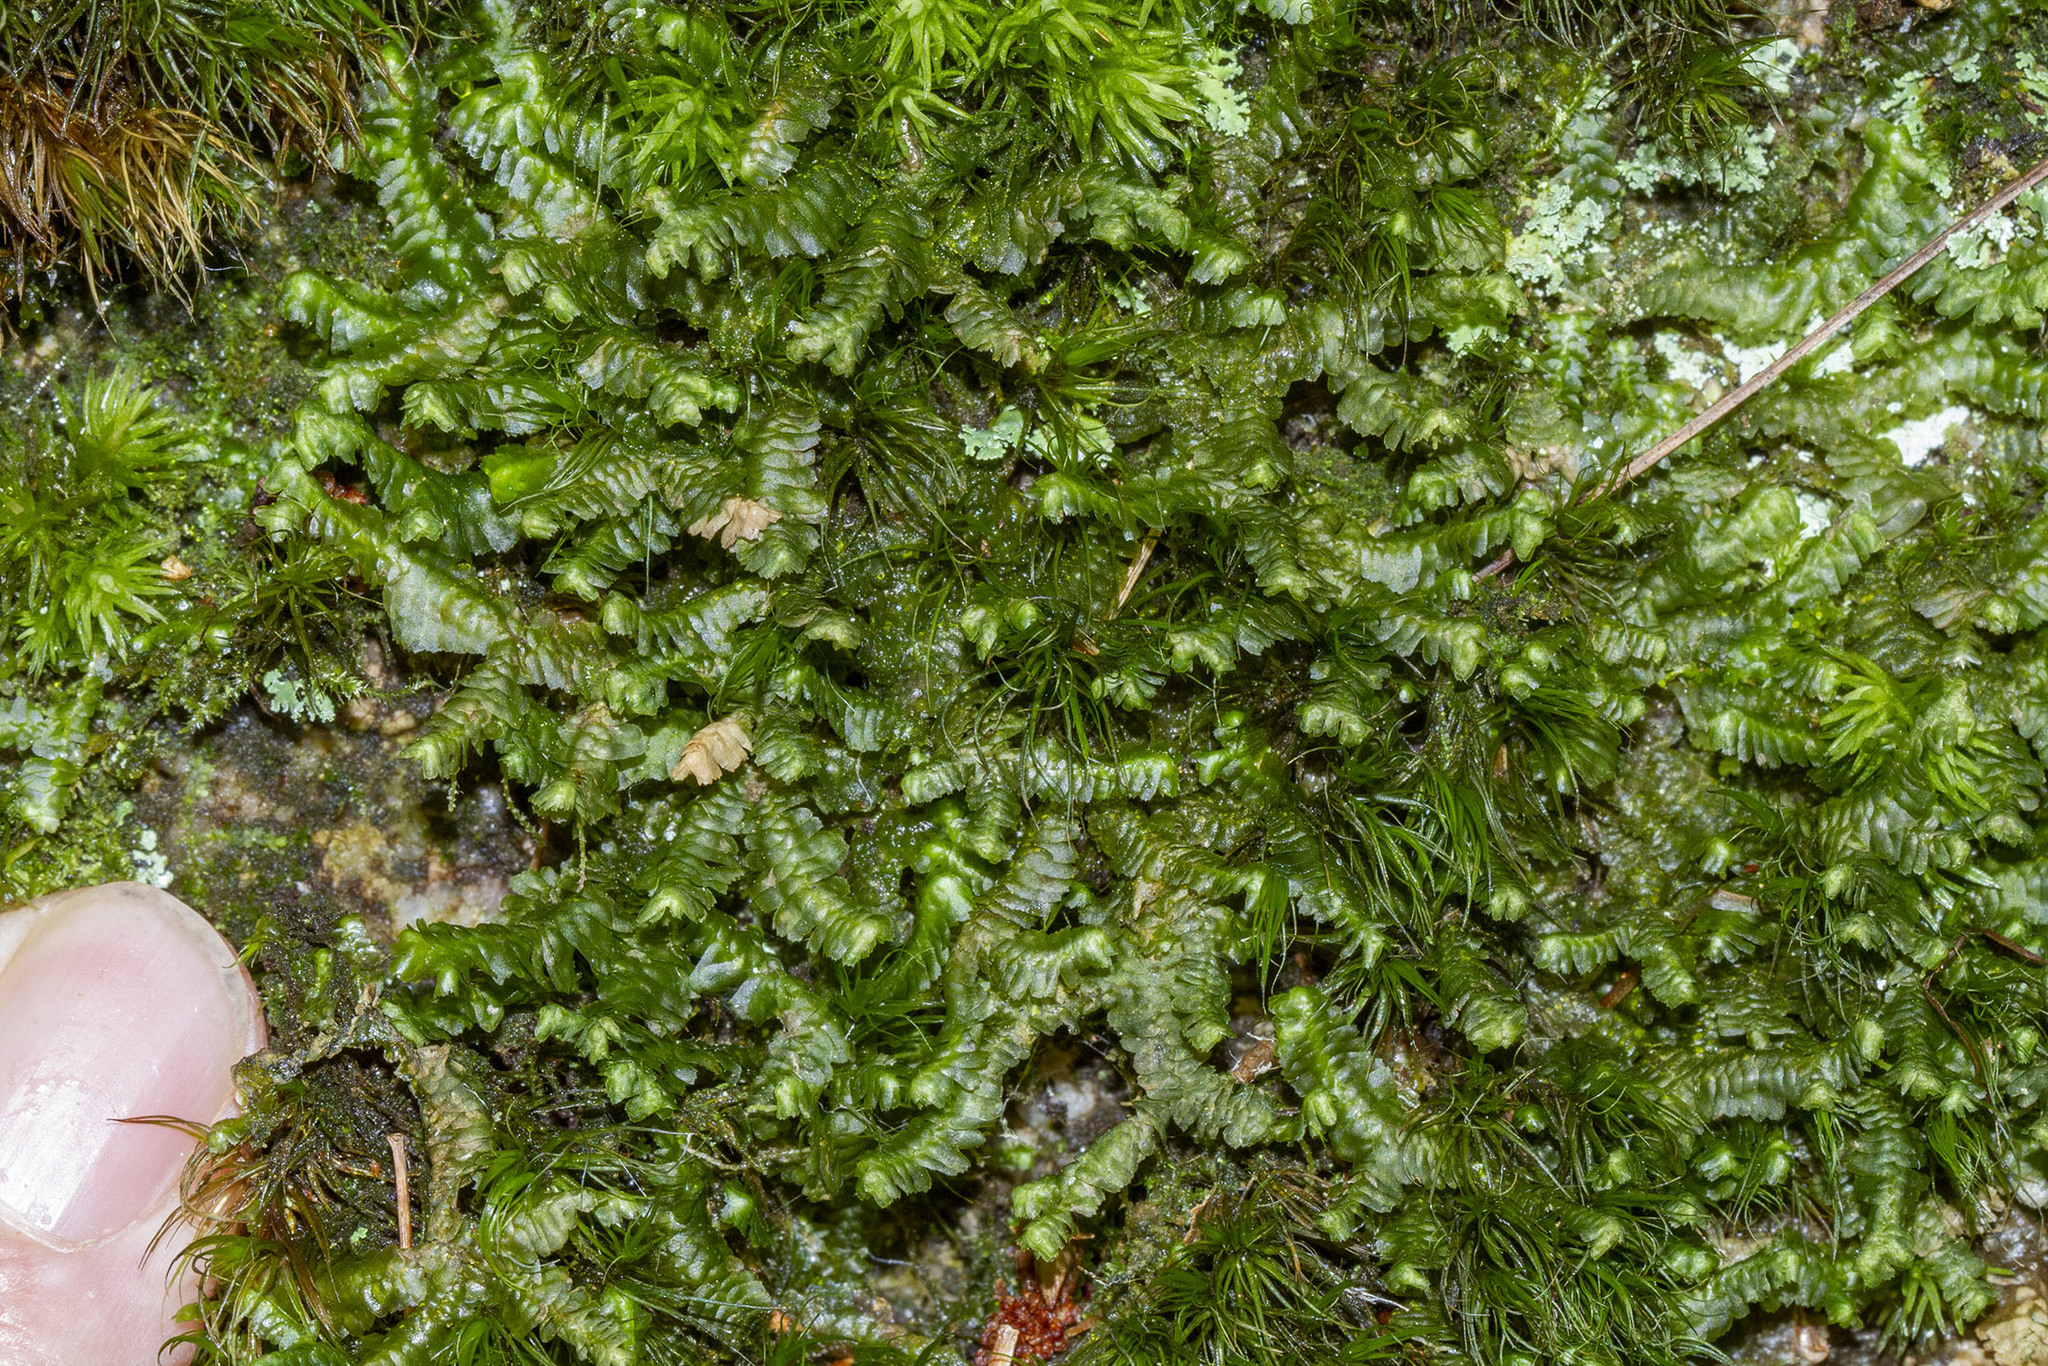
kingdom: Plantae
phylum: Marchantiophyta
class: Jungermanniopsida
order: Jungermanniales
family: Lepidoziaceae
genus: Bazzania
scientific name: Bazzania trilobata
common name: Three-lobed whipwort
